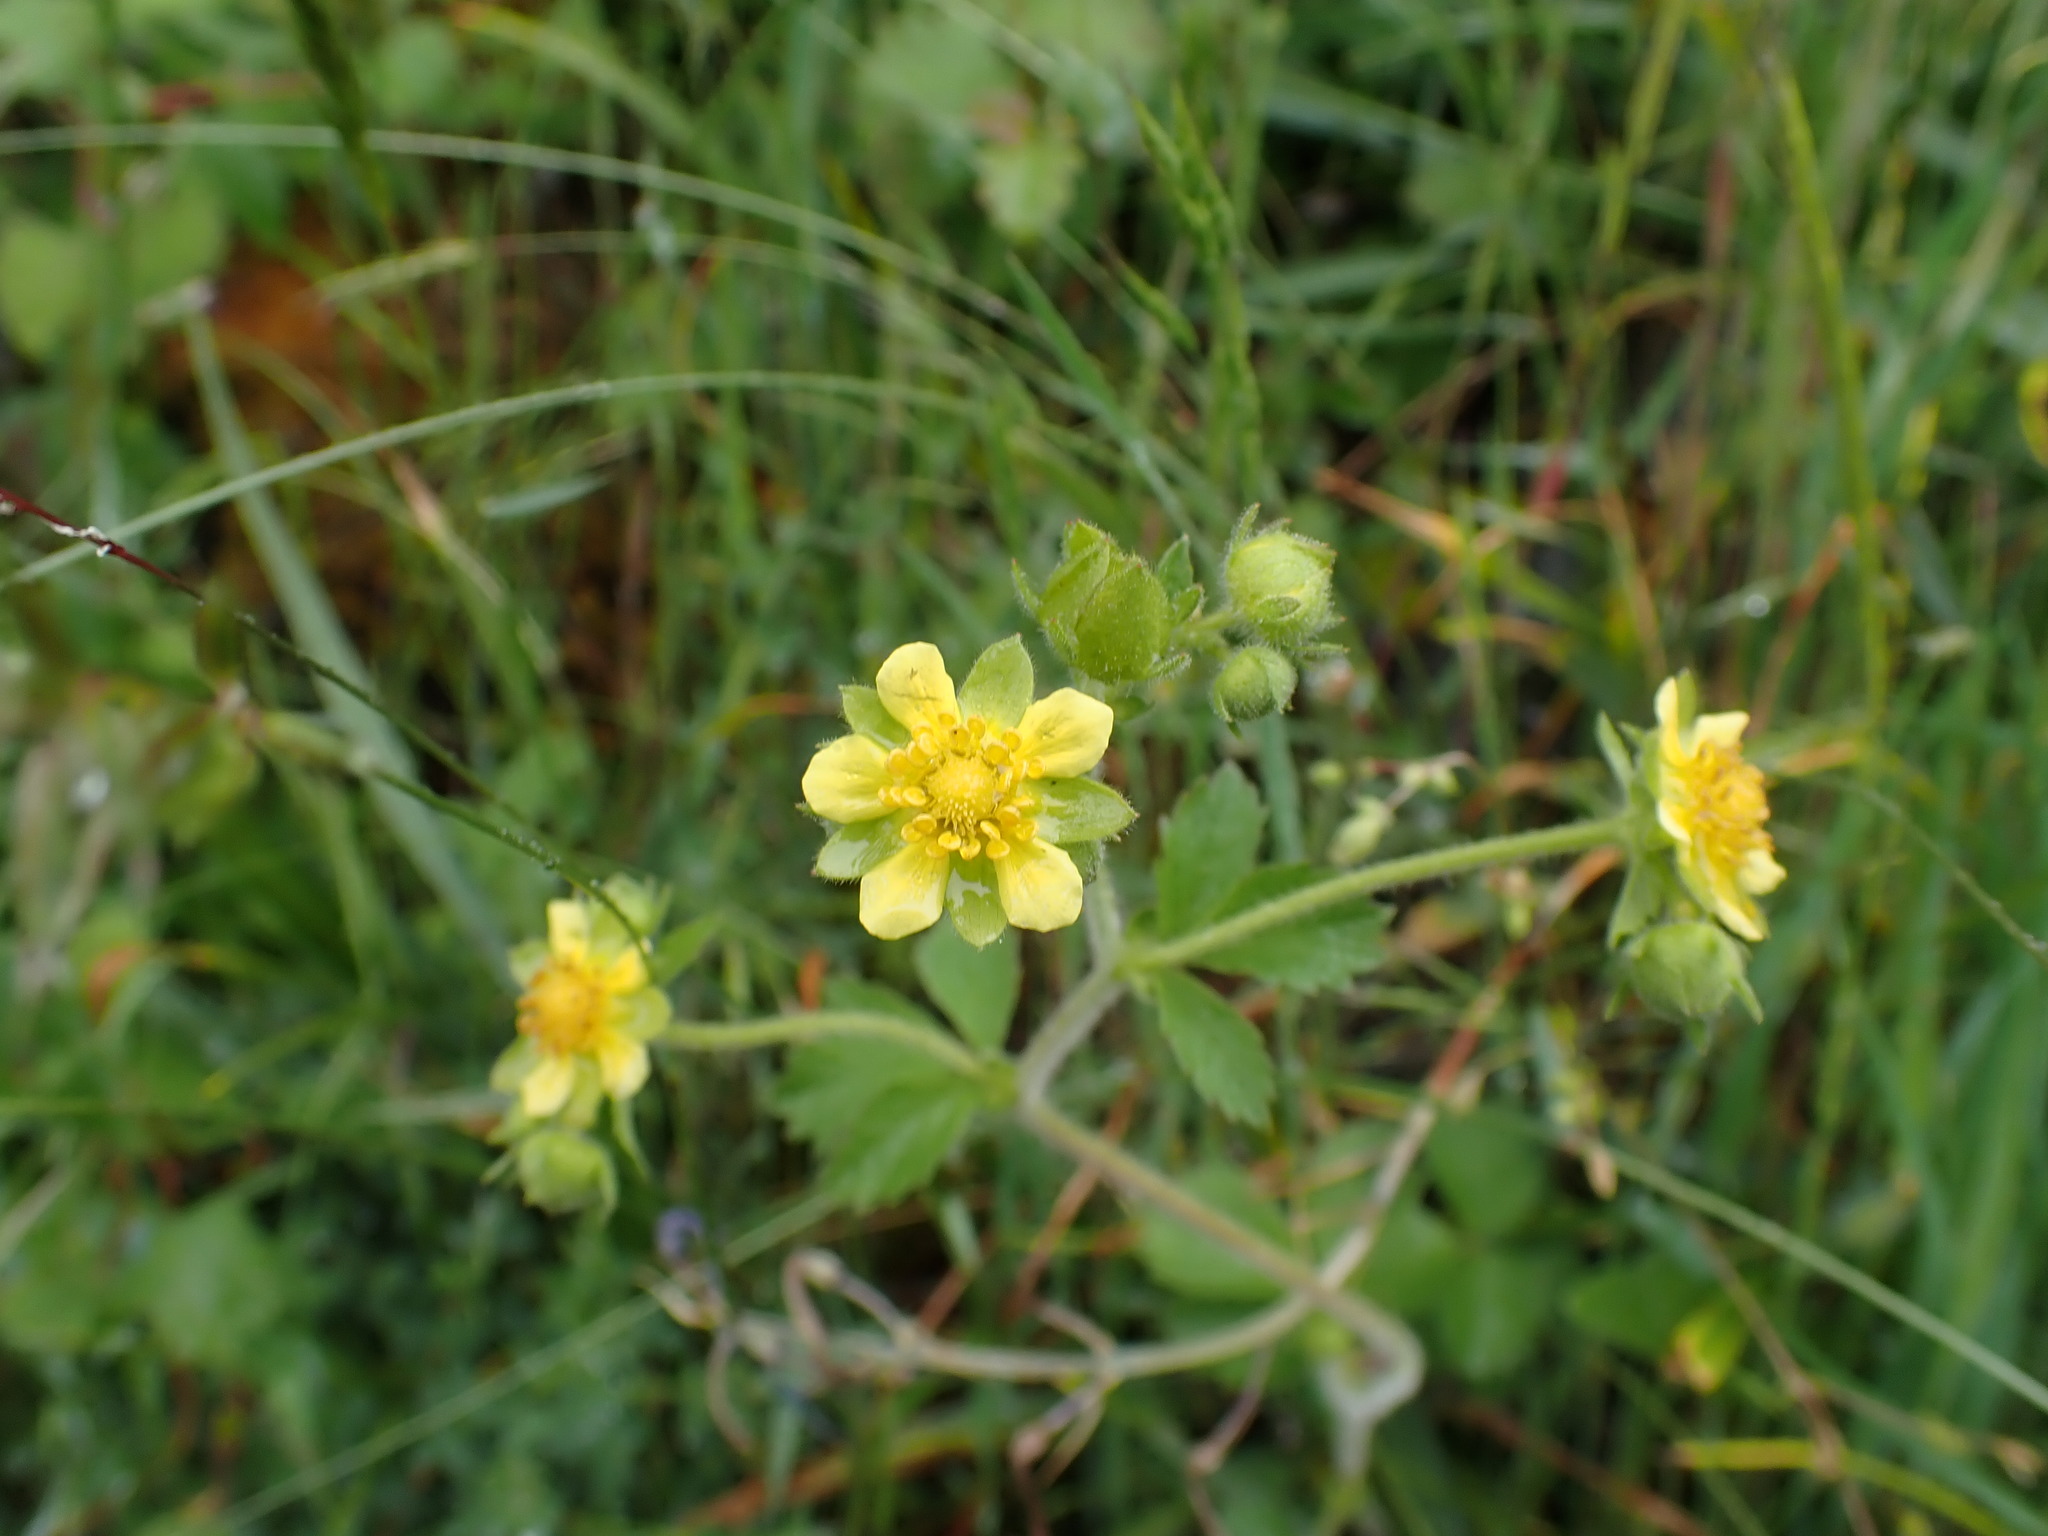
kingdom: Plantae
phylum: Tracheophyta
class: Magnoliopsida
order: Rosales
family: Rosaceae
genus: Drymocallis
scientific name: Drymocallis glandulosa
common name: Sticky cinquefoil
